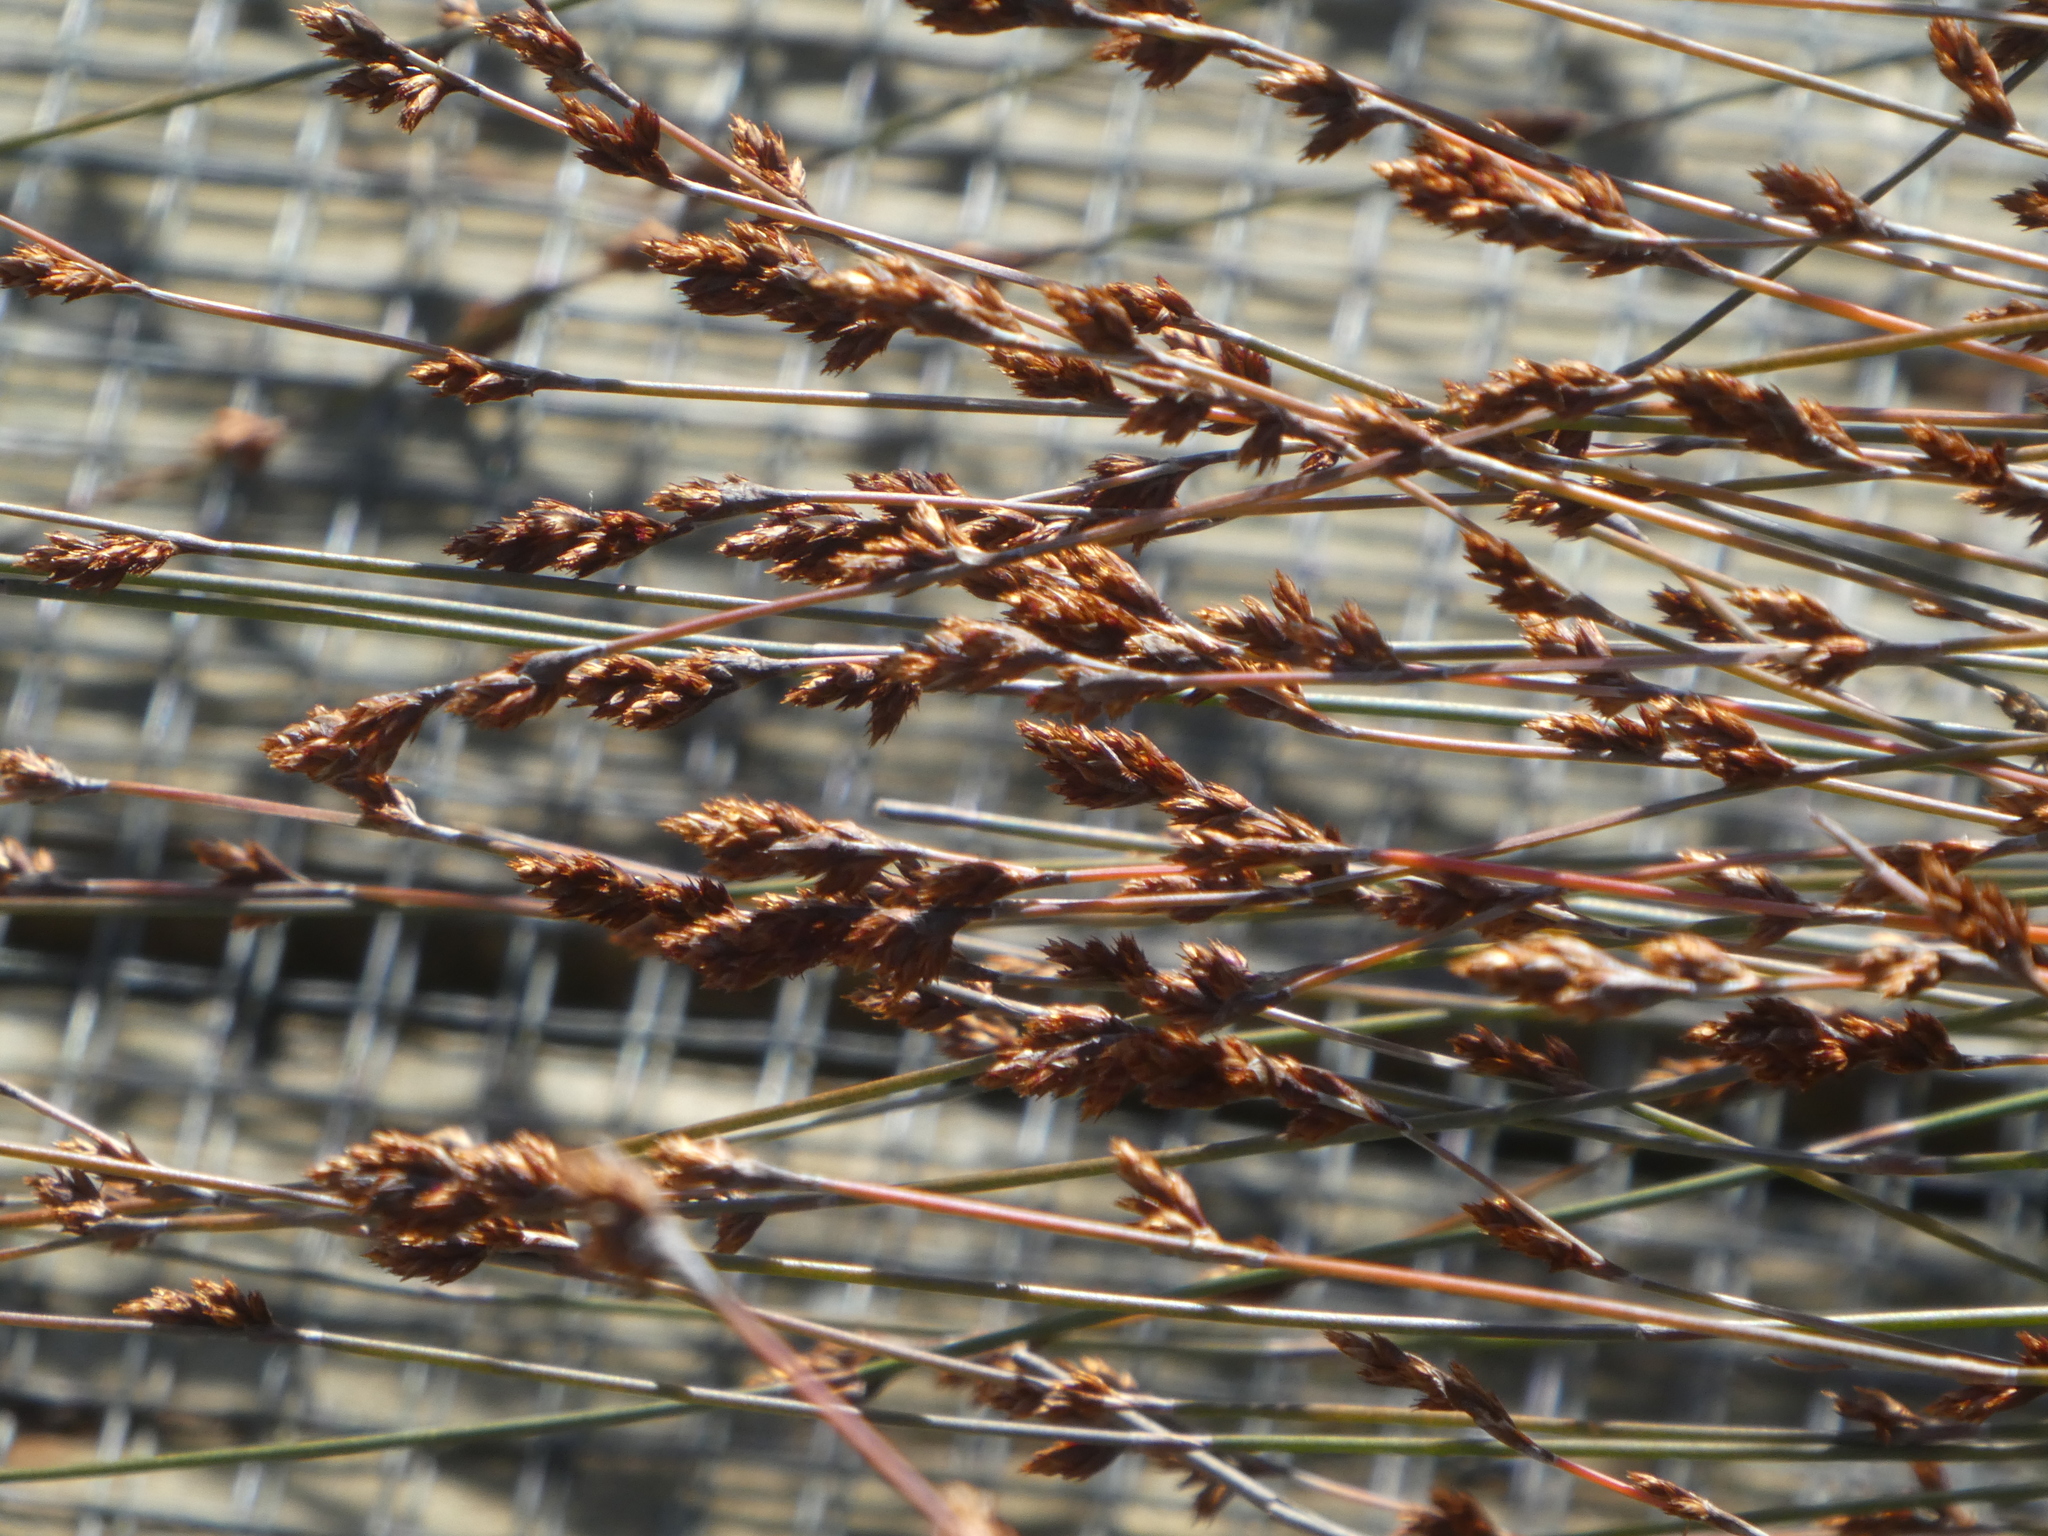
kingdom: Plantae
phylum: Tracheophyta
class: Liliopsida
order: Poales
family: Restionaceae
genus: Apodasmia
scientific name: Apodasmia similis
